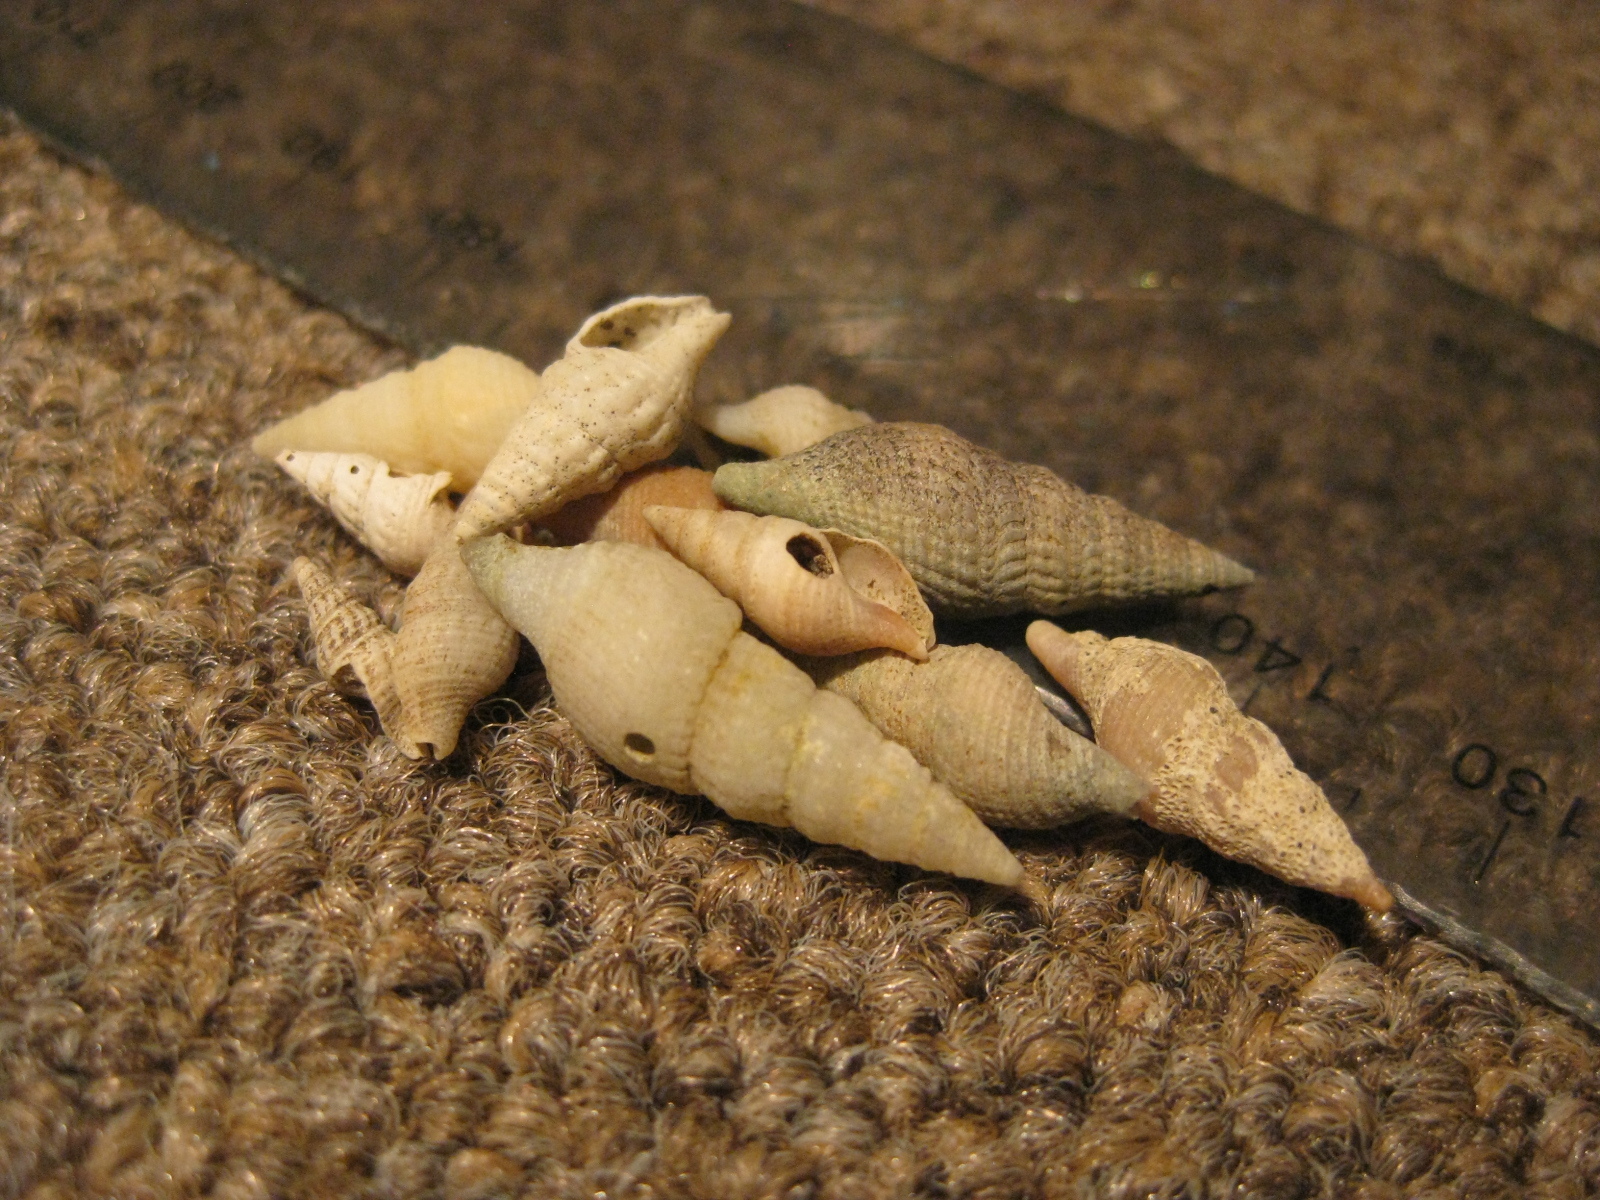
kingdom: Animalia
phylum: Mollusca
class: Gastropoda
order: Neogastropoda
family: Borsoniidae
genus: Phenatoma
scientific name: Phenatoma roseum
